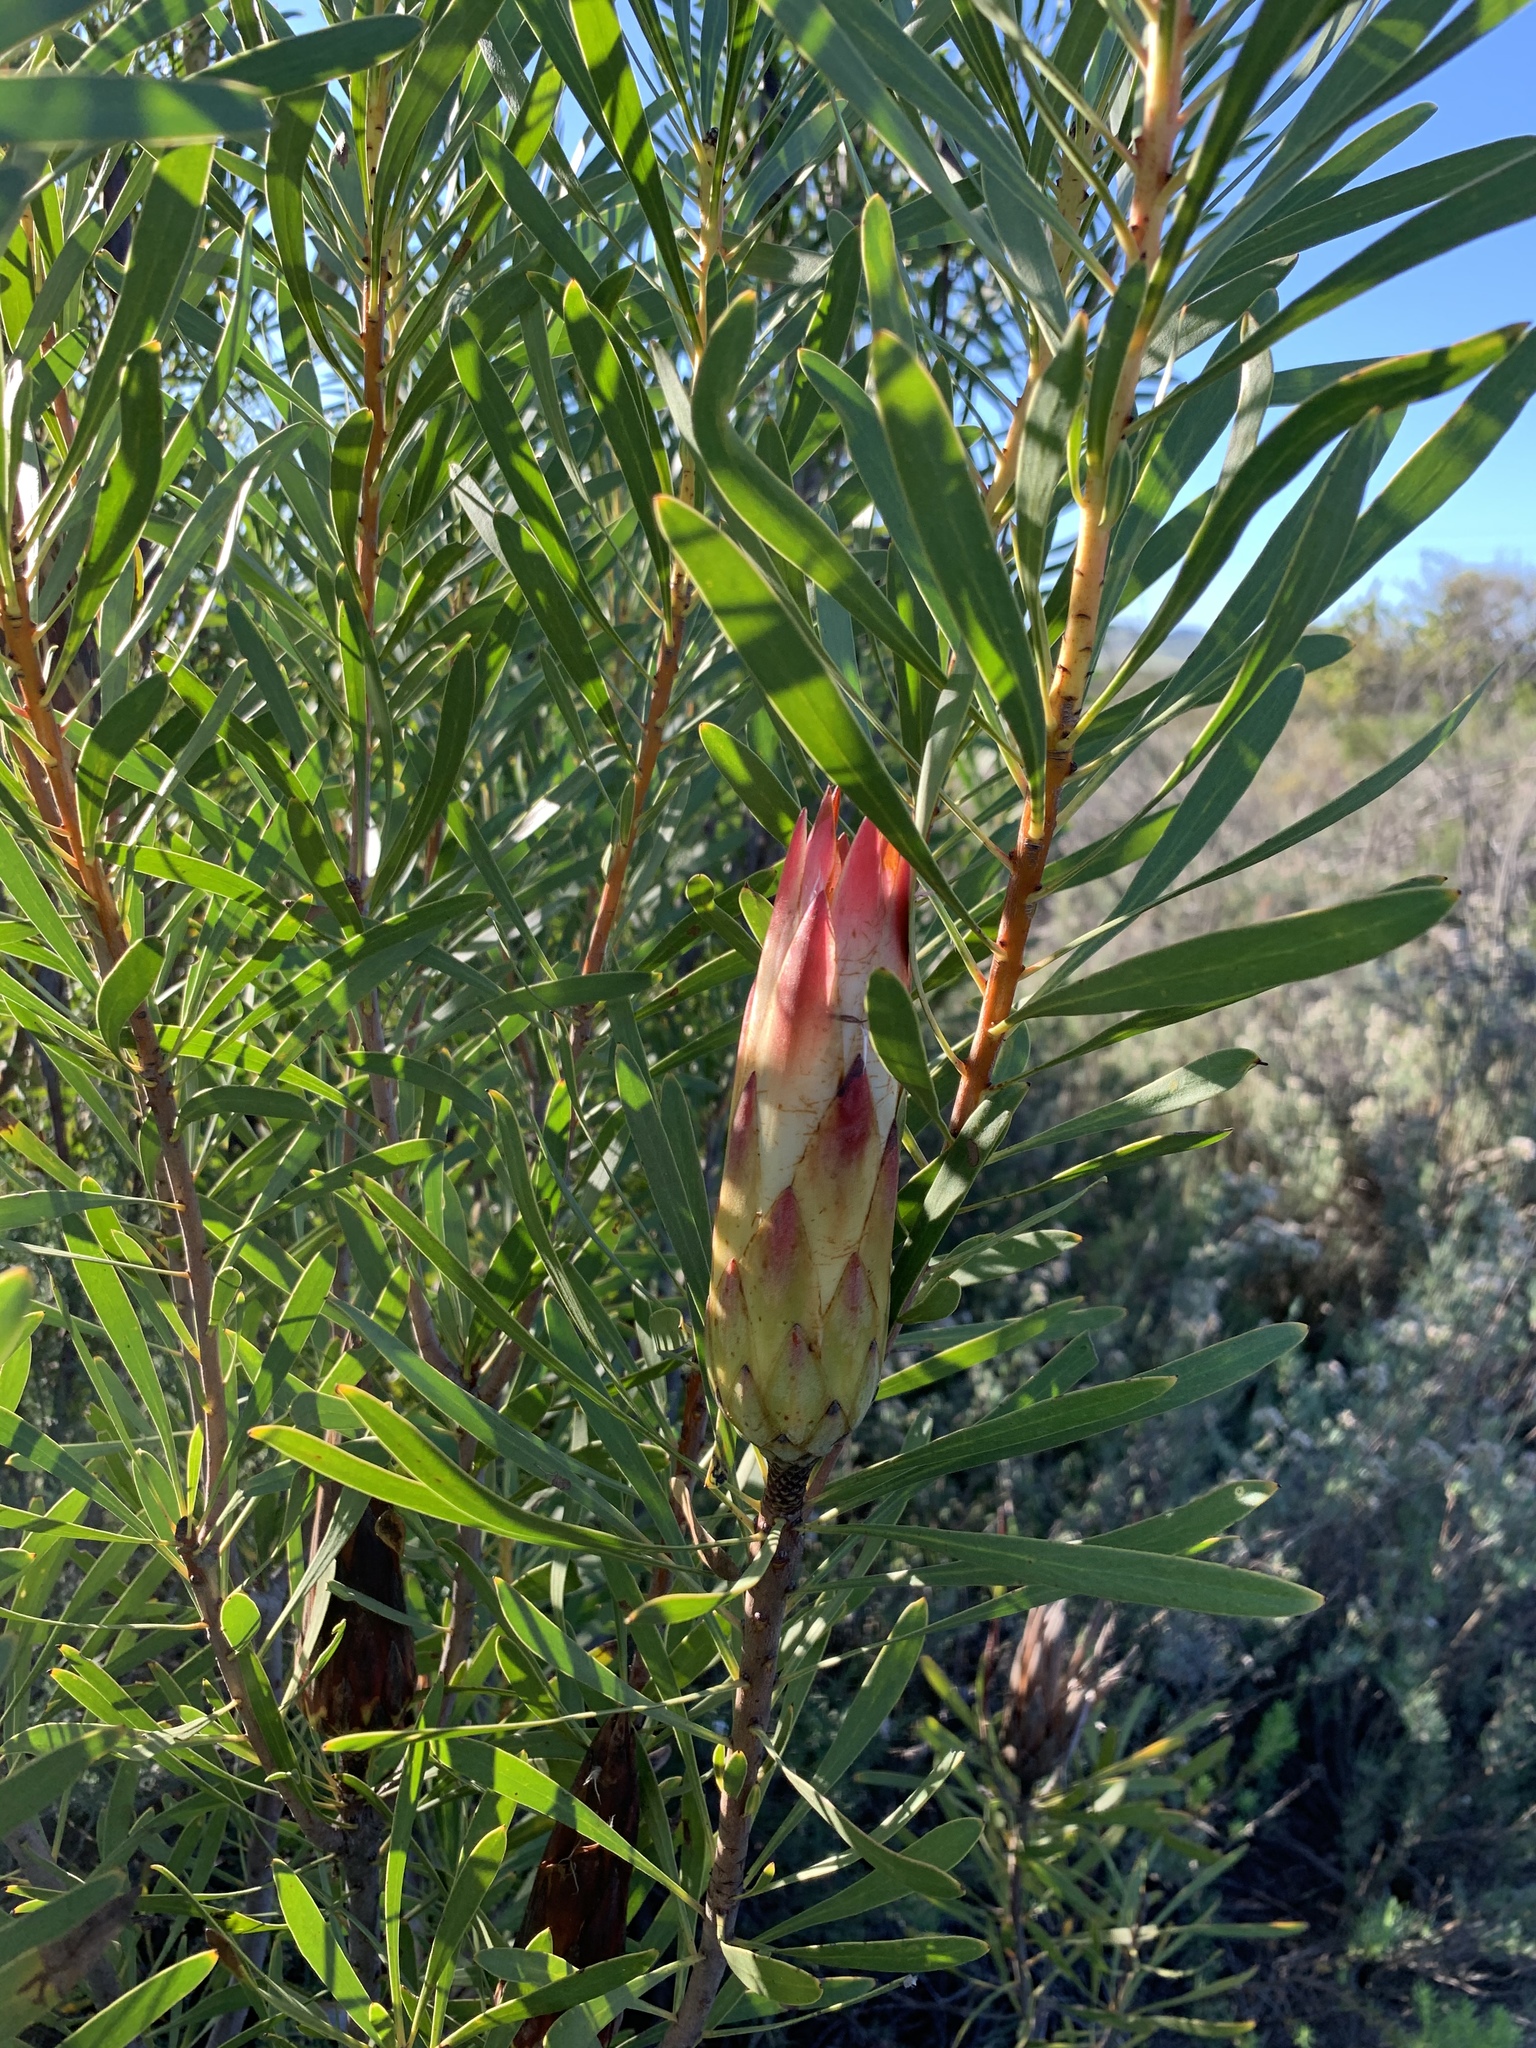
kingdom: Plantae
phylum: Tracheophyta
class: Magnoliopsida
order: Proteales
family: Proteaceae
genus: Protea
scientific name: Protea repens
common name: Sugarbush
